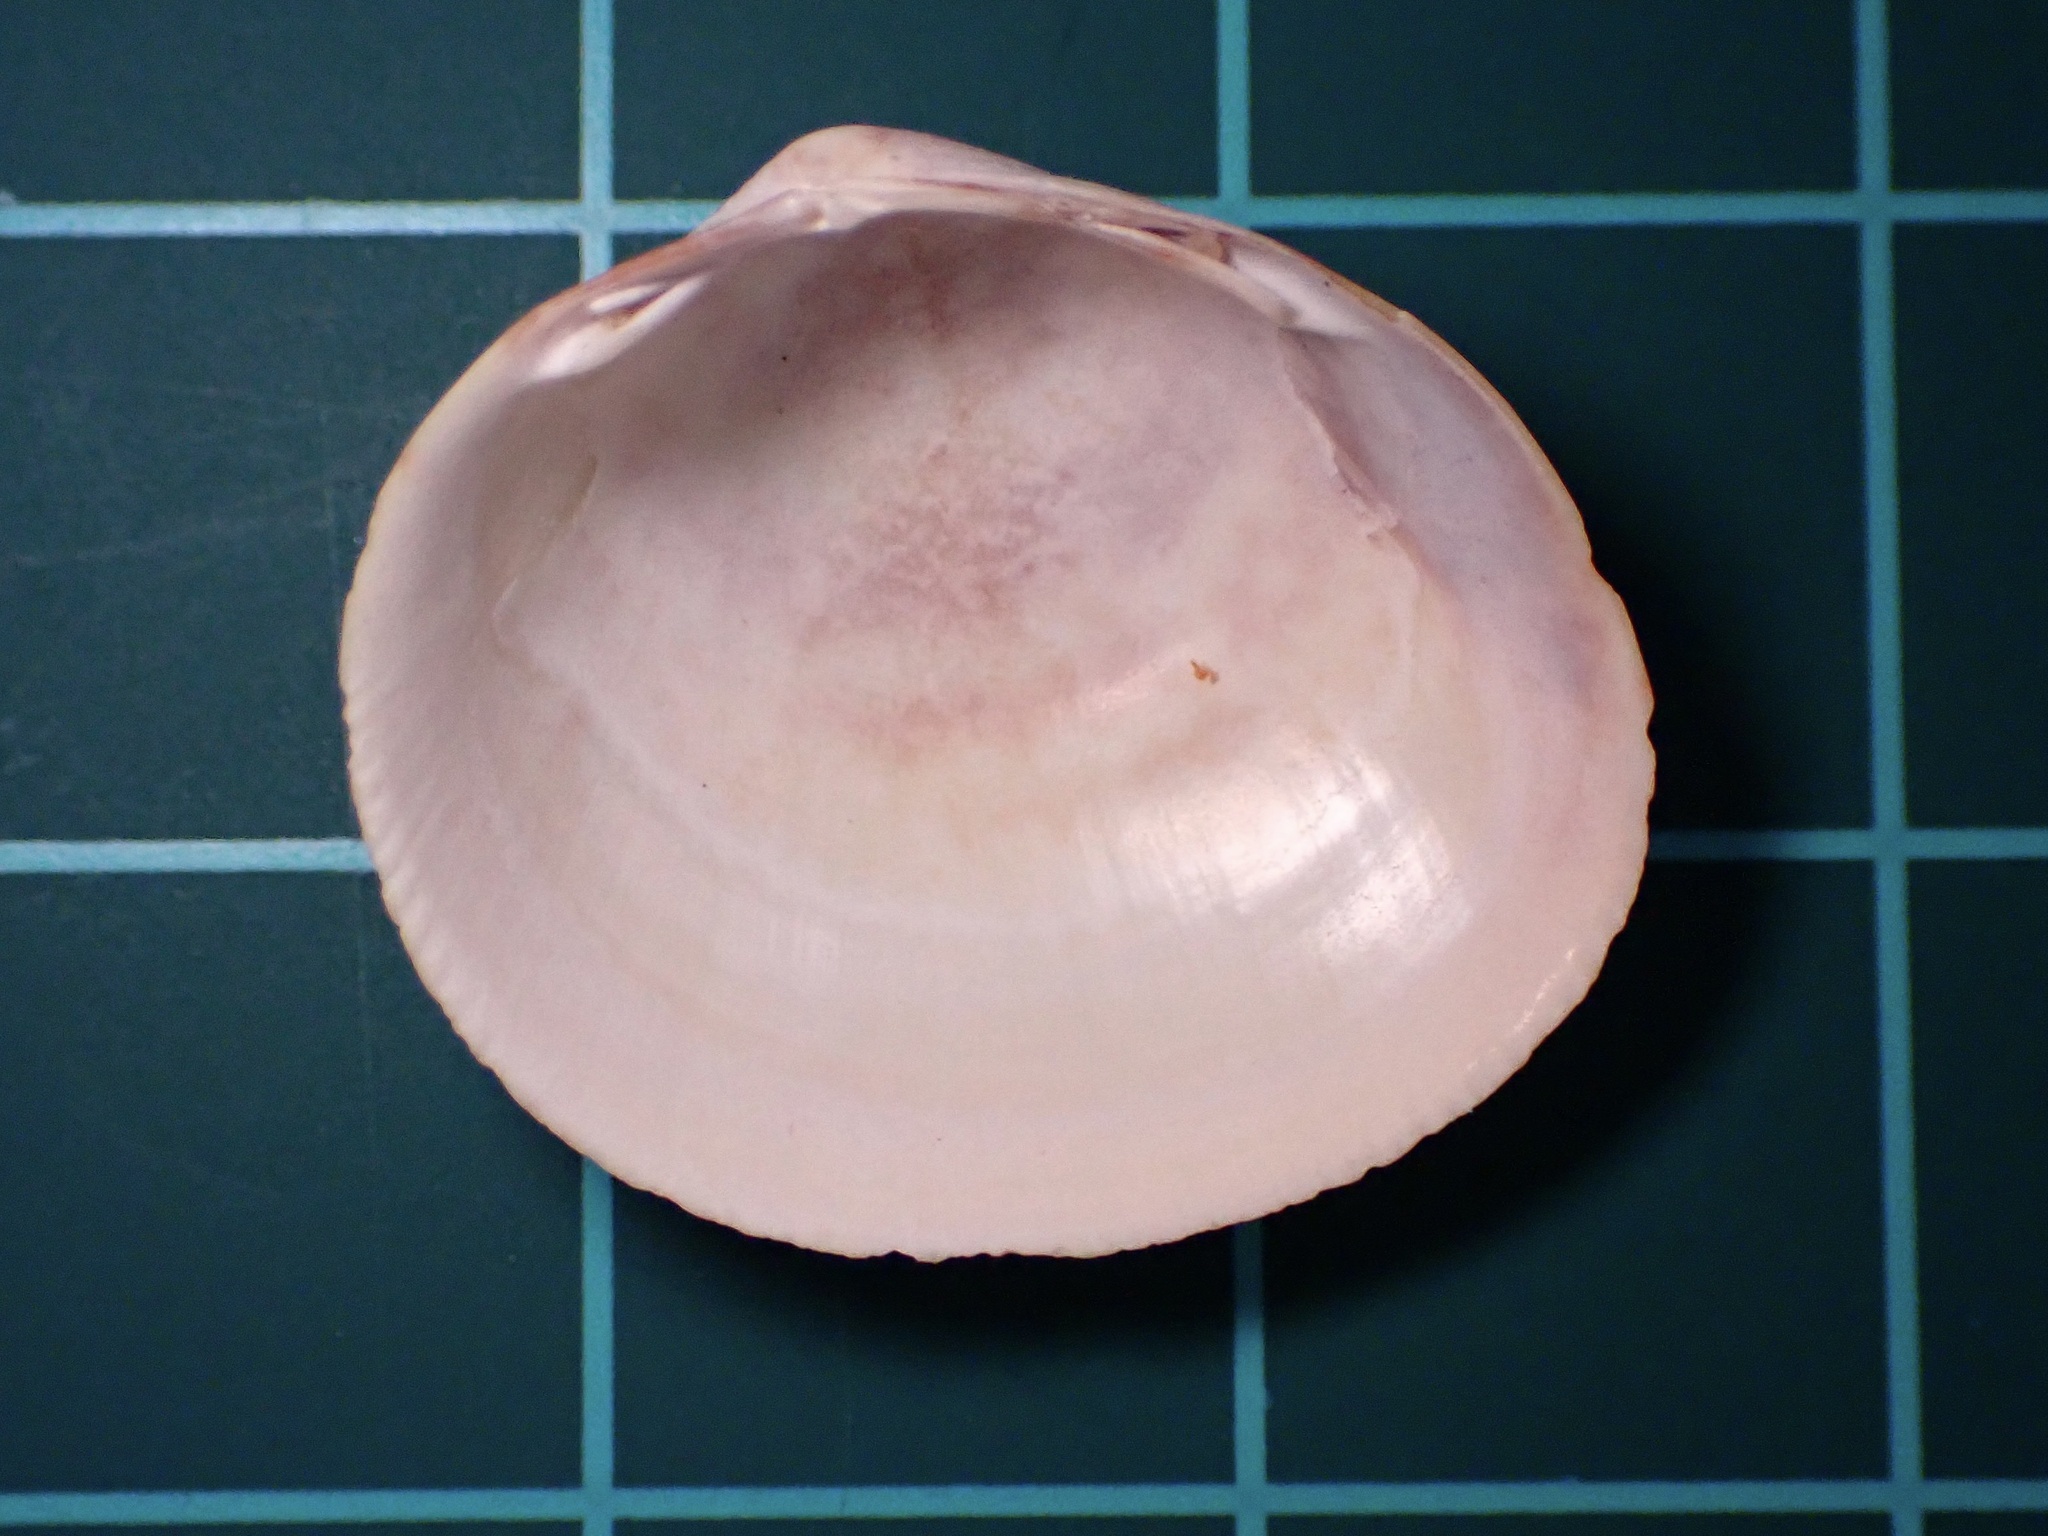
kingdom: Animalia
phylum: Mollusca
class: Bivalvia
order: Cardiida
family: Cardiidae
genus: Laevicardium
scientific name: Laevicardium substriatum
